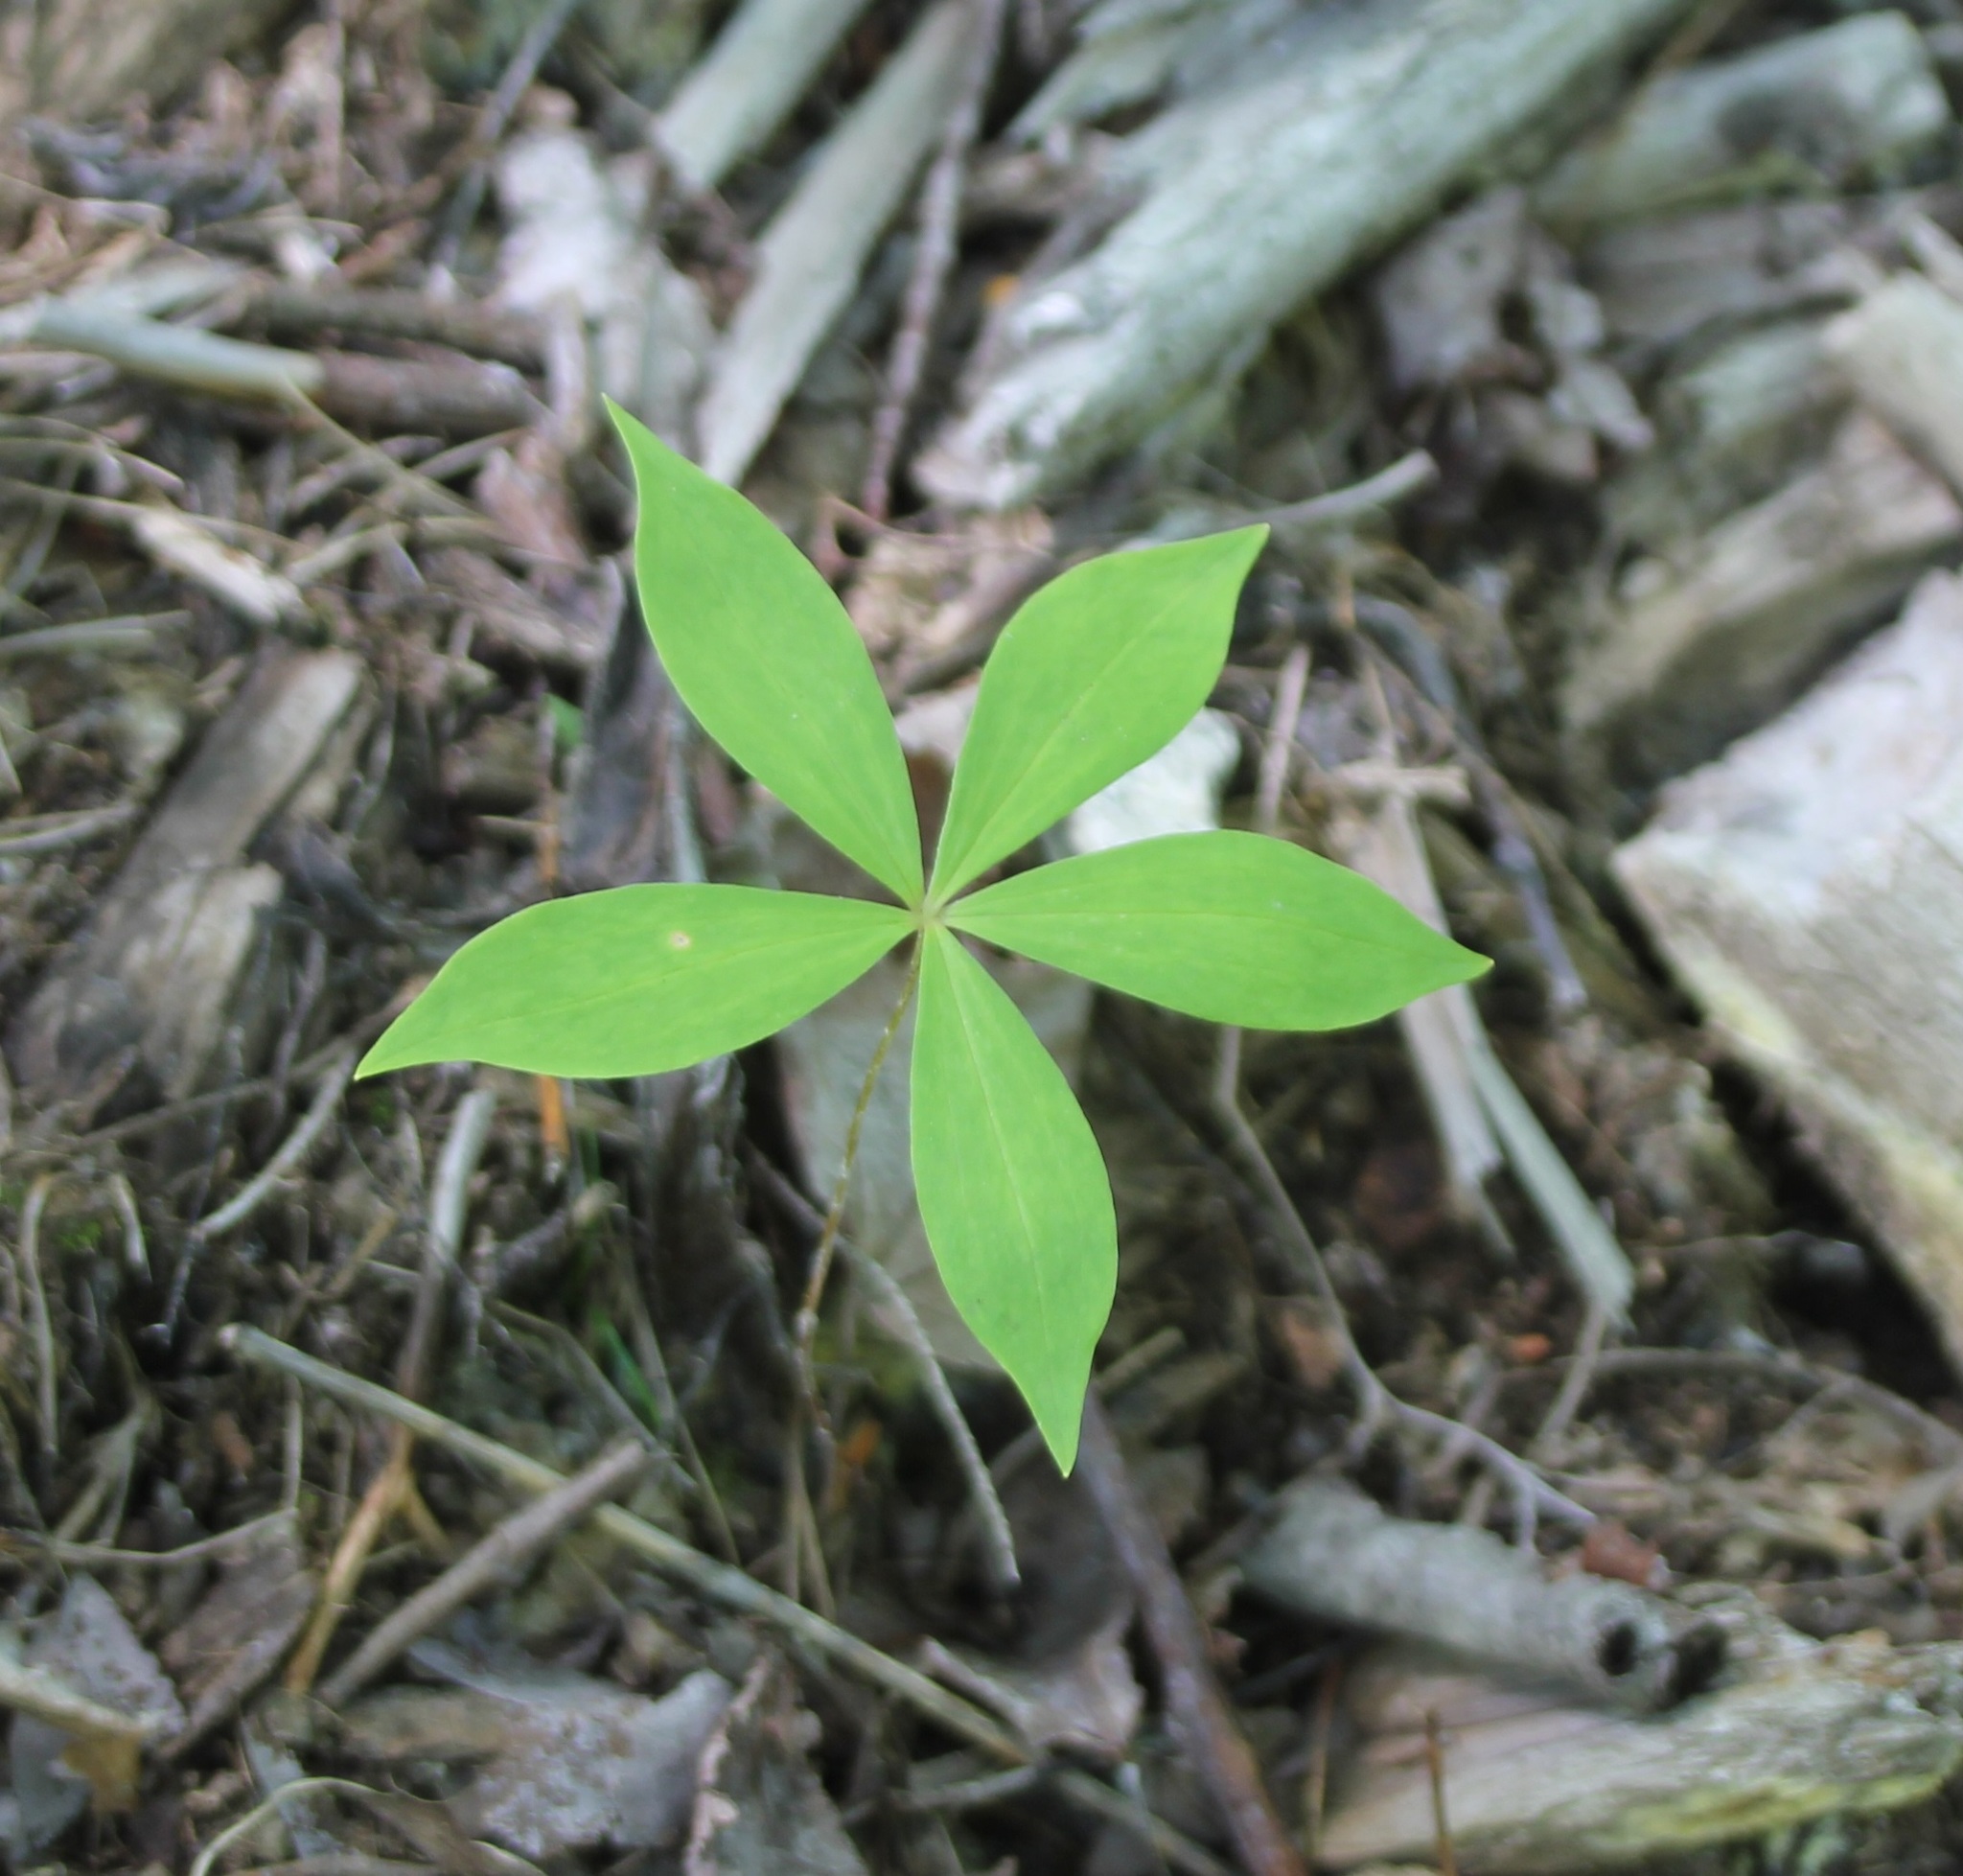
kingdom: Plantae
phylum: Tracheophyta
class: Liliopsida
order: Liliales
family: Liliaceae
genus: Medeola
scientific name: Medeola virginiana
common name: Indian cucumber-root
